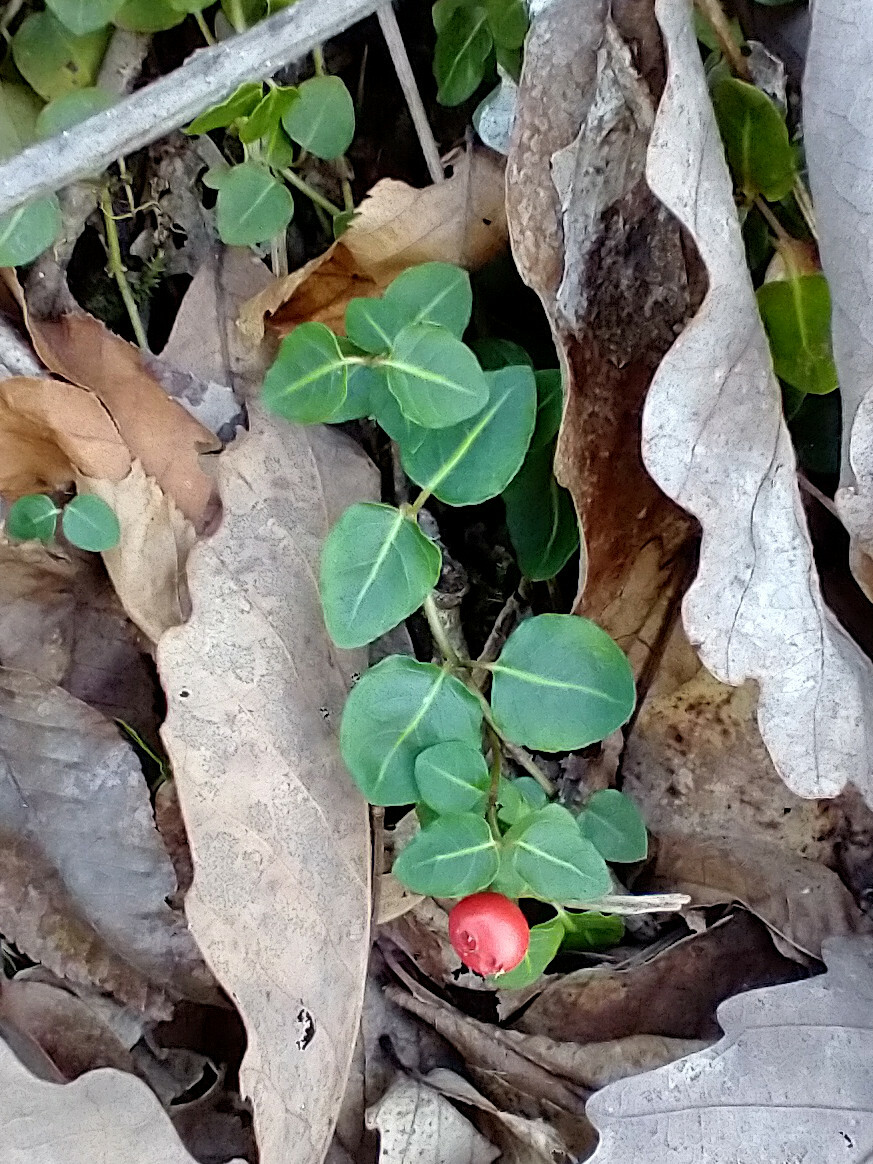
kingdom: Plantae
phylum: Tracheophyta
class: Magnoliopsida
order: Gentianales
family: Rubiaceae
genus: Mitchella
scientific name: Mitchella repens
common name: Partridge-berry
